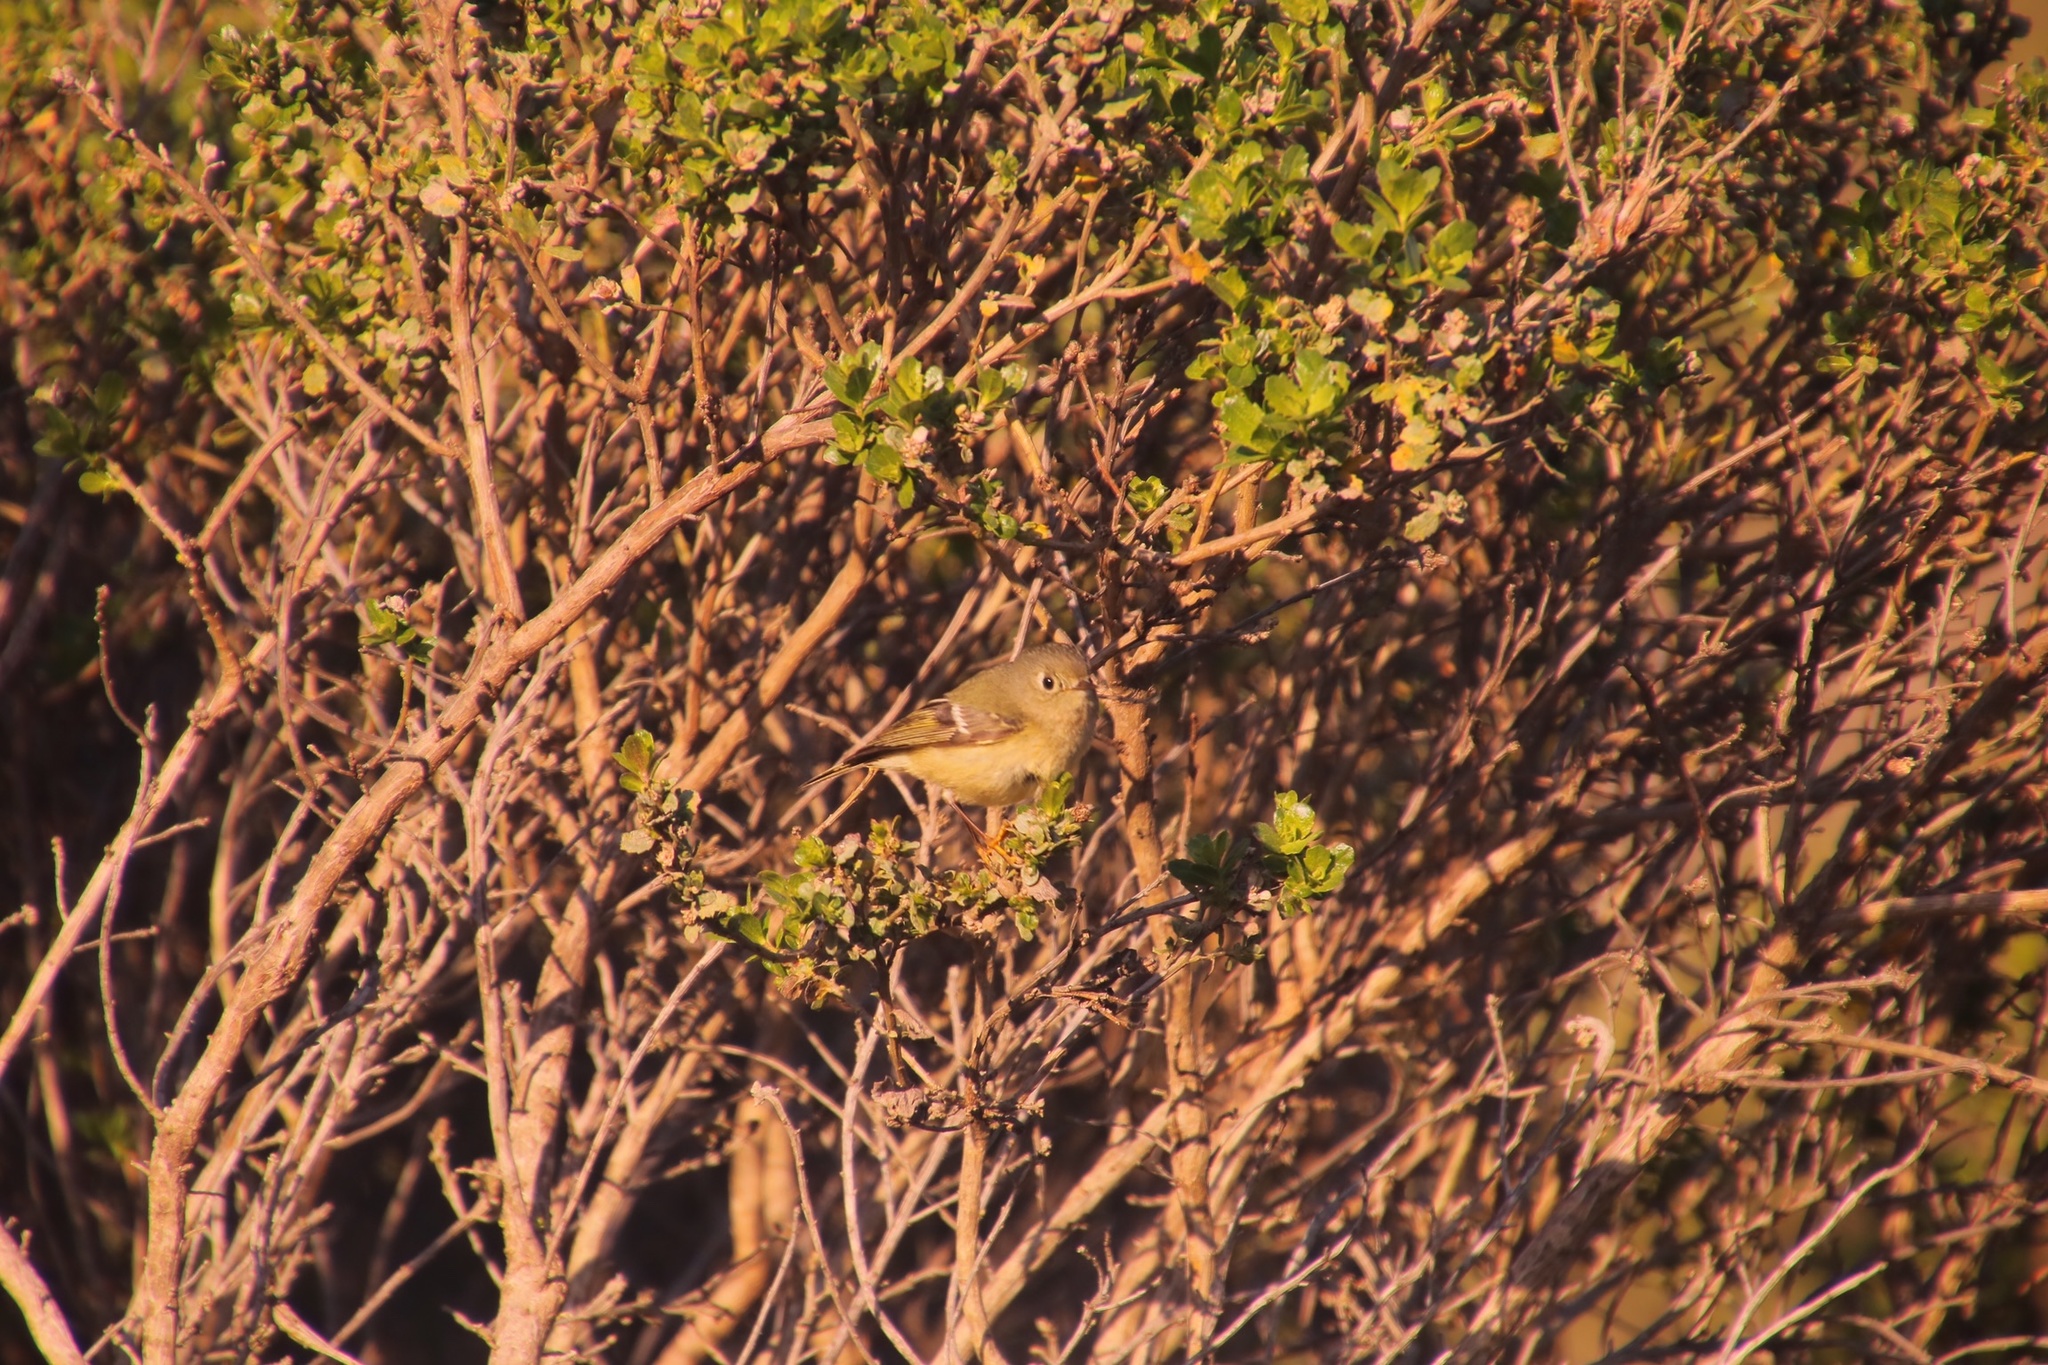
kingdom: Animalia
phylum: Chordata
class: Aves
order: Passeriformes
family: Regulidae
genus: Regulus
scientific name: Regulus calendula
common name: Ruby-crowned kinglet
